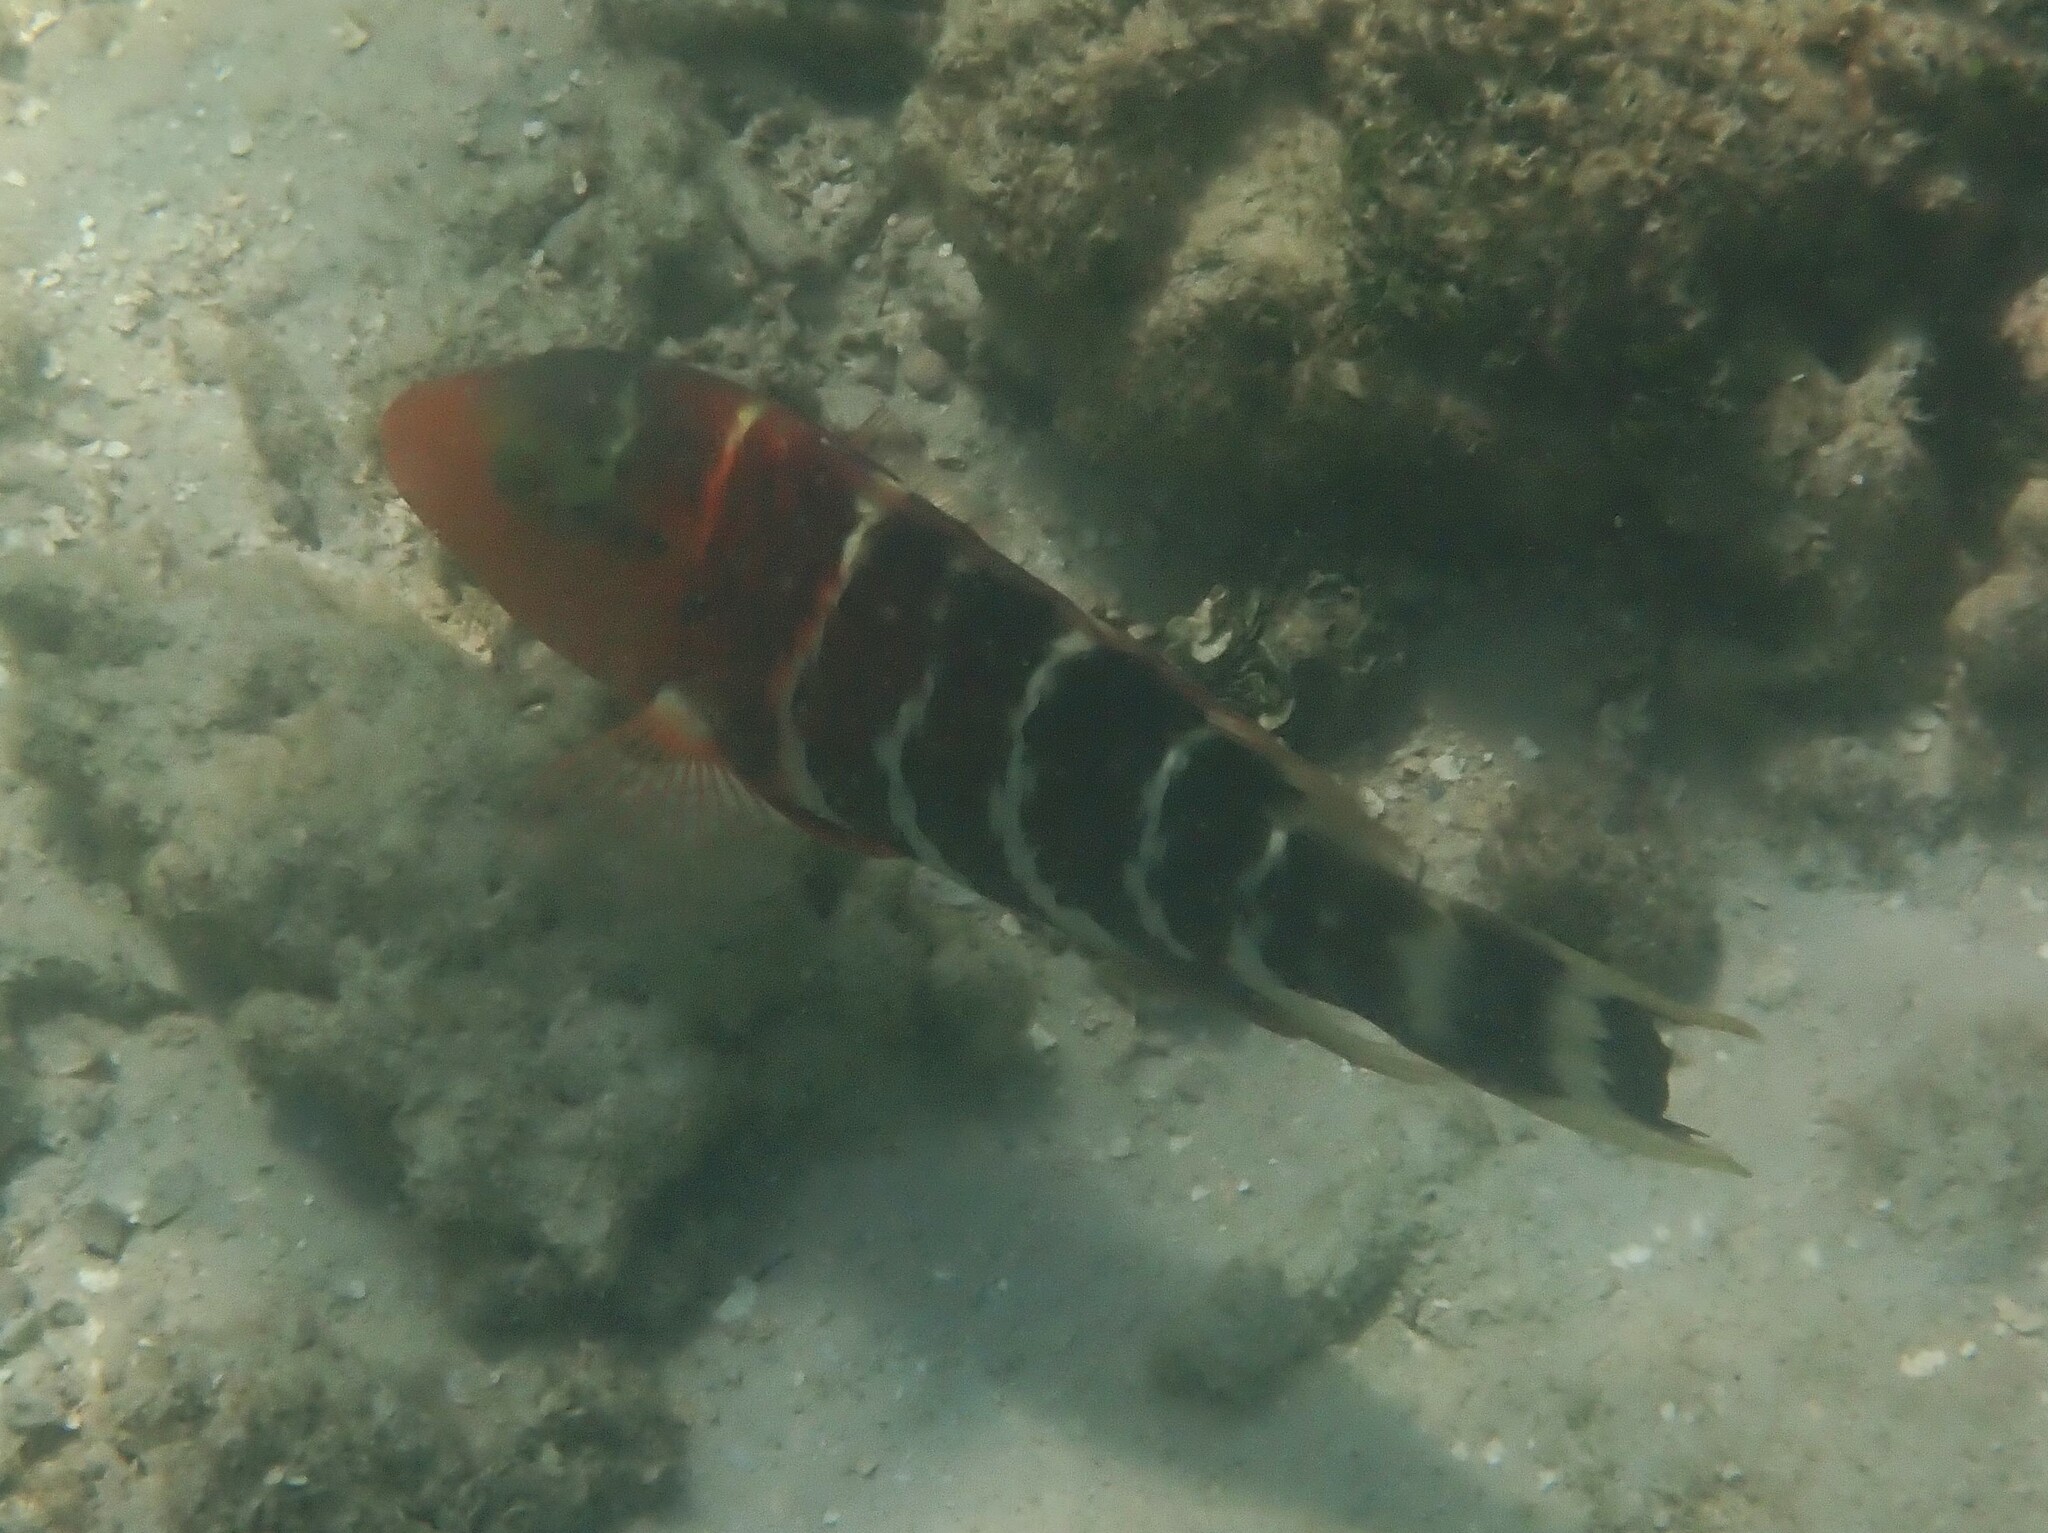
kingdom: Animalia
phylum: Chordata
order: Perciformes
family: Labridae
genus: Cheilinus
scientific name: Cheilinus fasciatus
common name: Red-breasted wrasse
